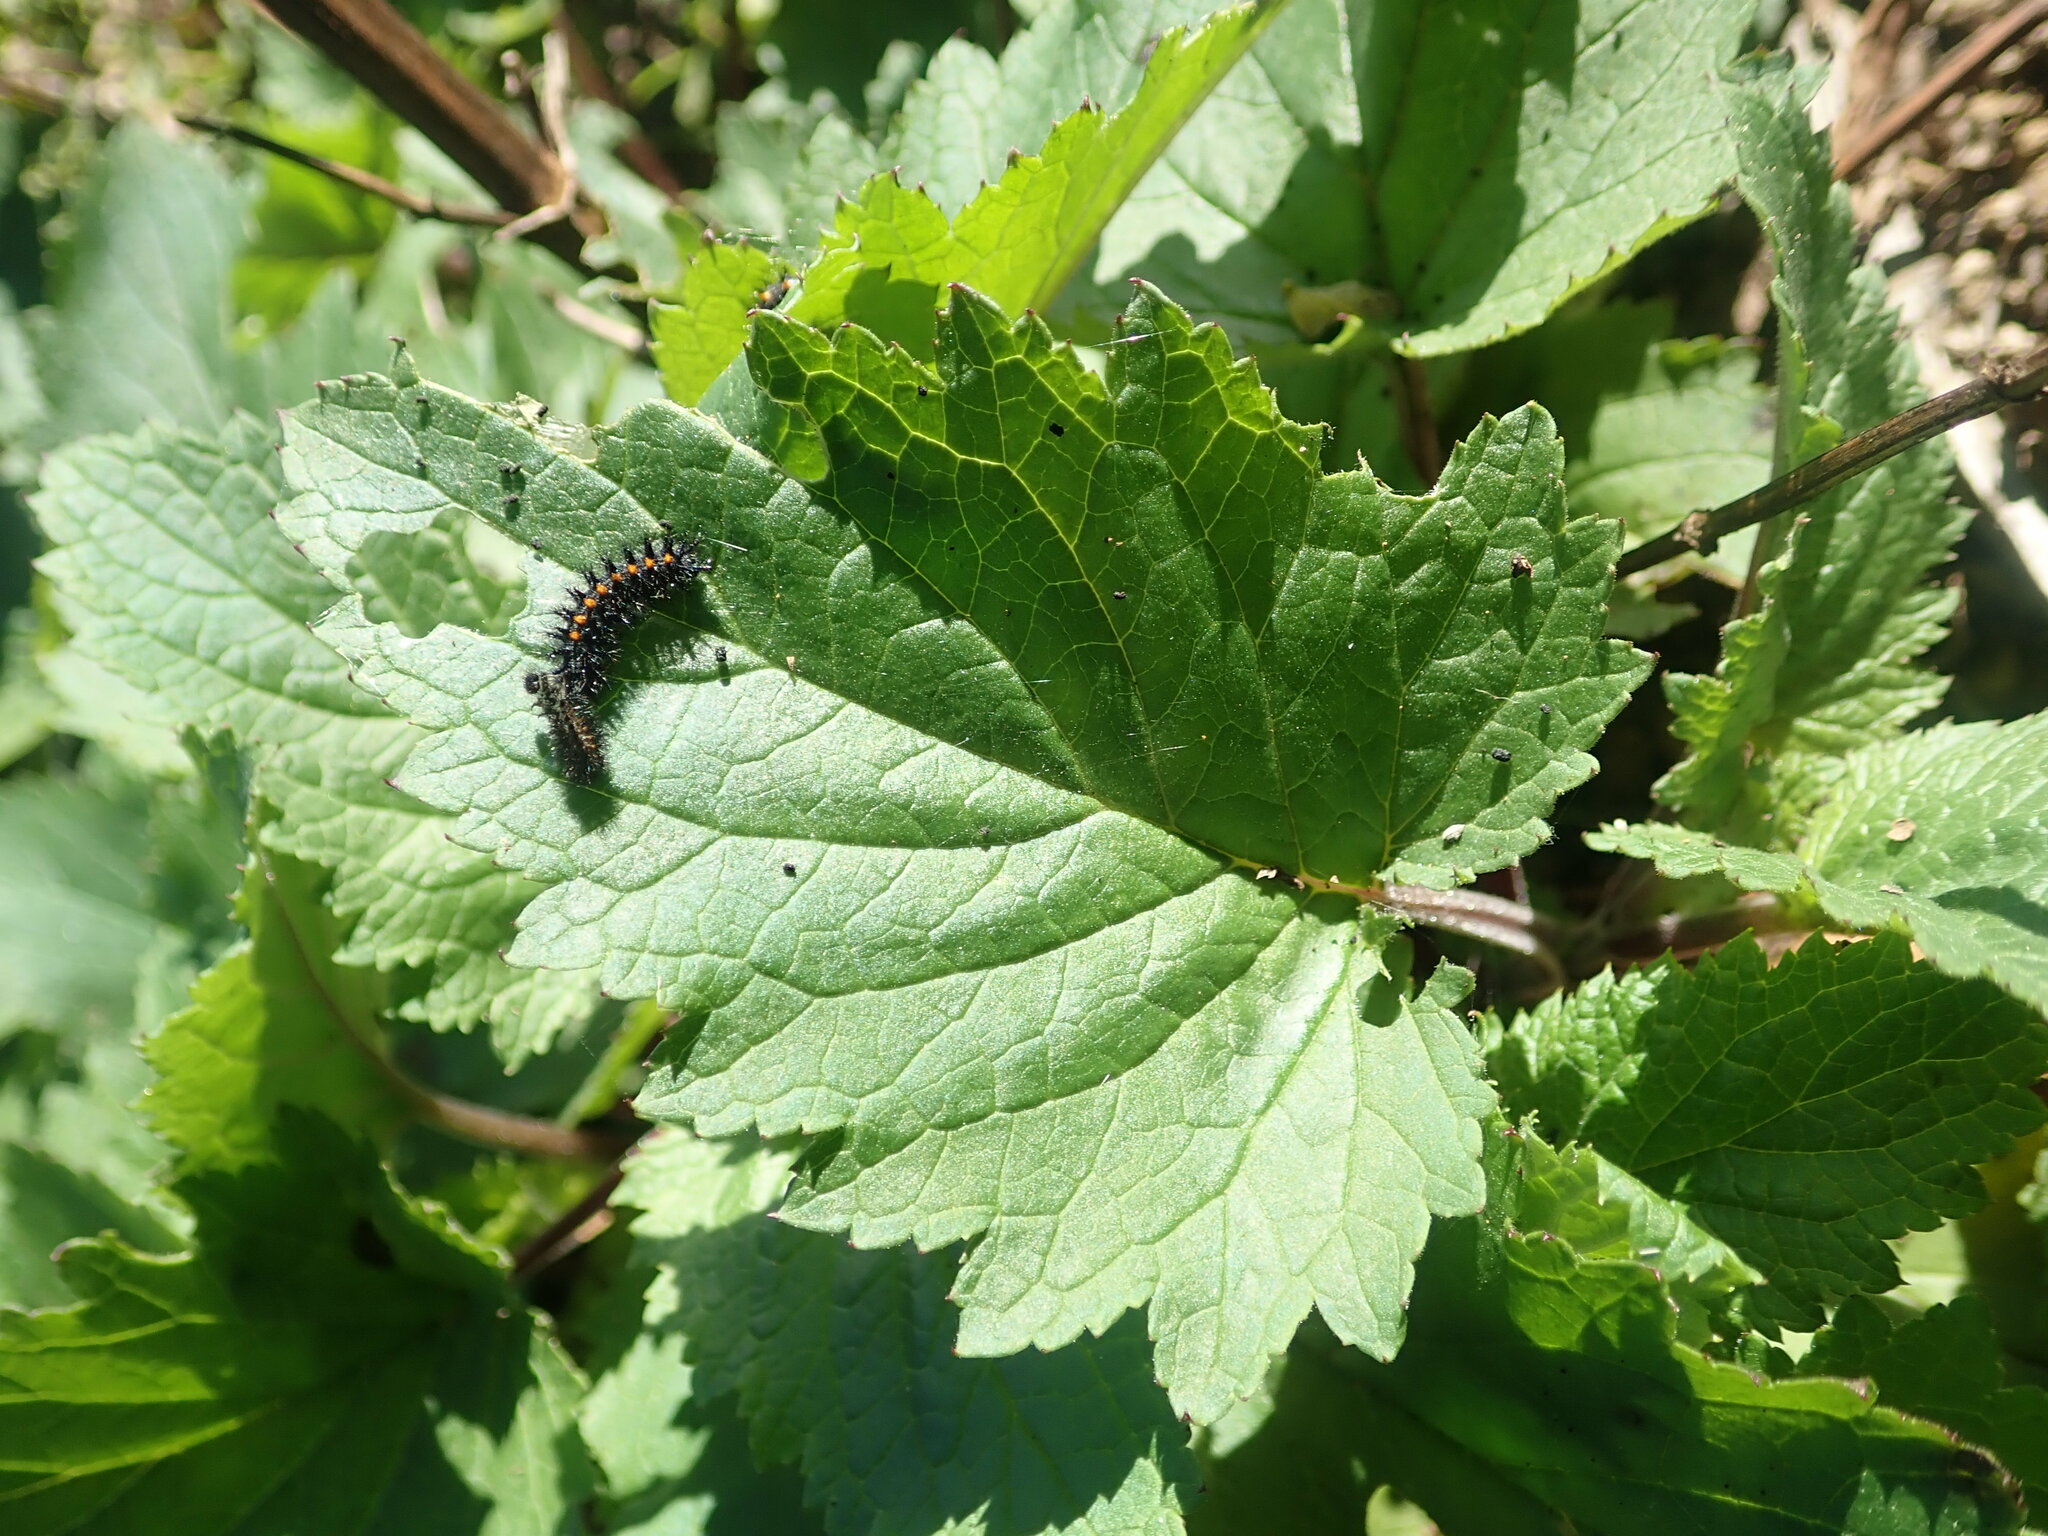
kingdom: Plantae
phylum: Tracheophyta
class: Magnoliopsida
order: Lamiales
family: Scrophulariaceae
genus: Scrophularia
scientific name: Scrophularia californica
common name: California figwort
